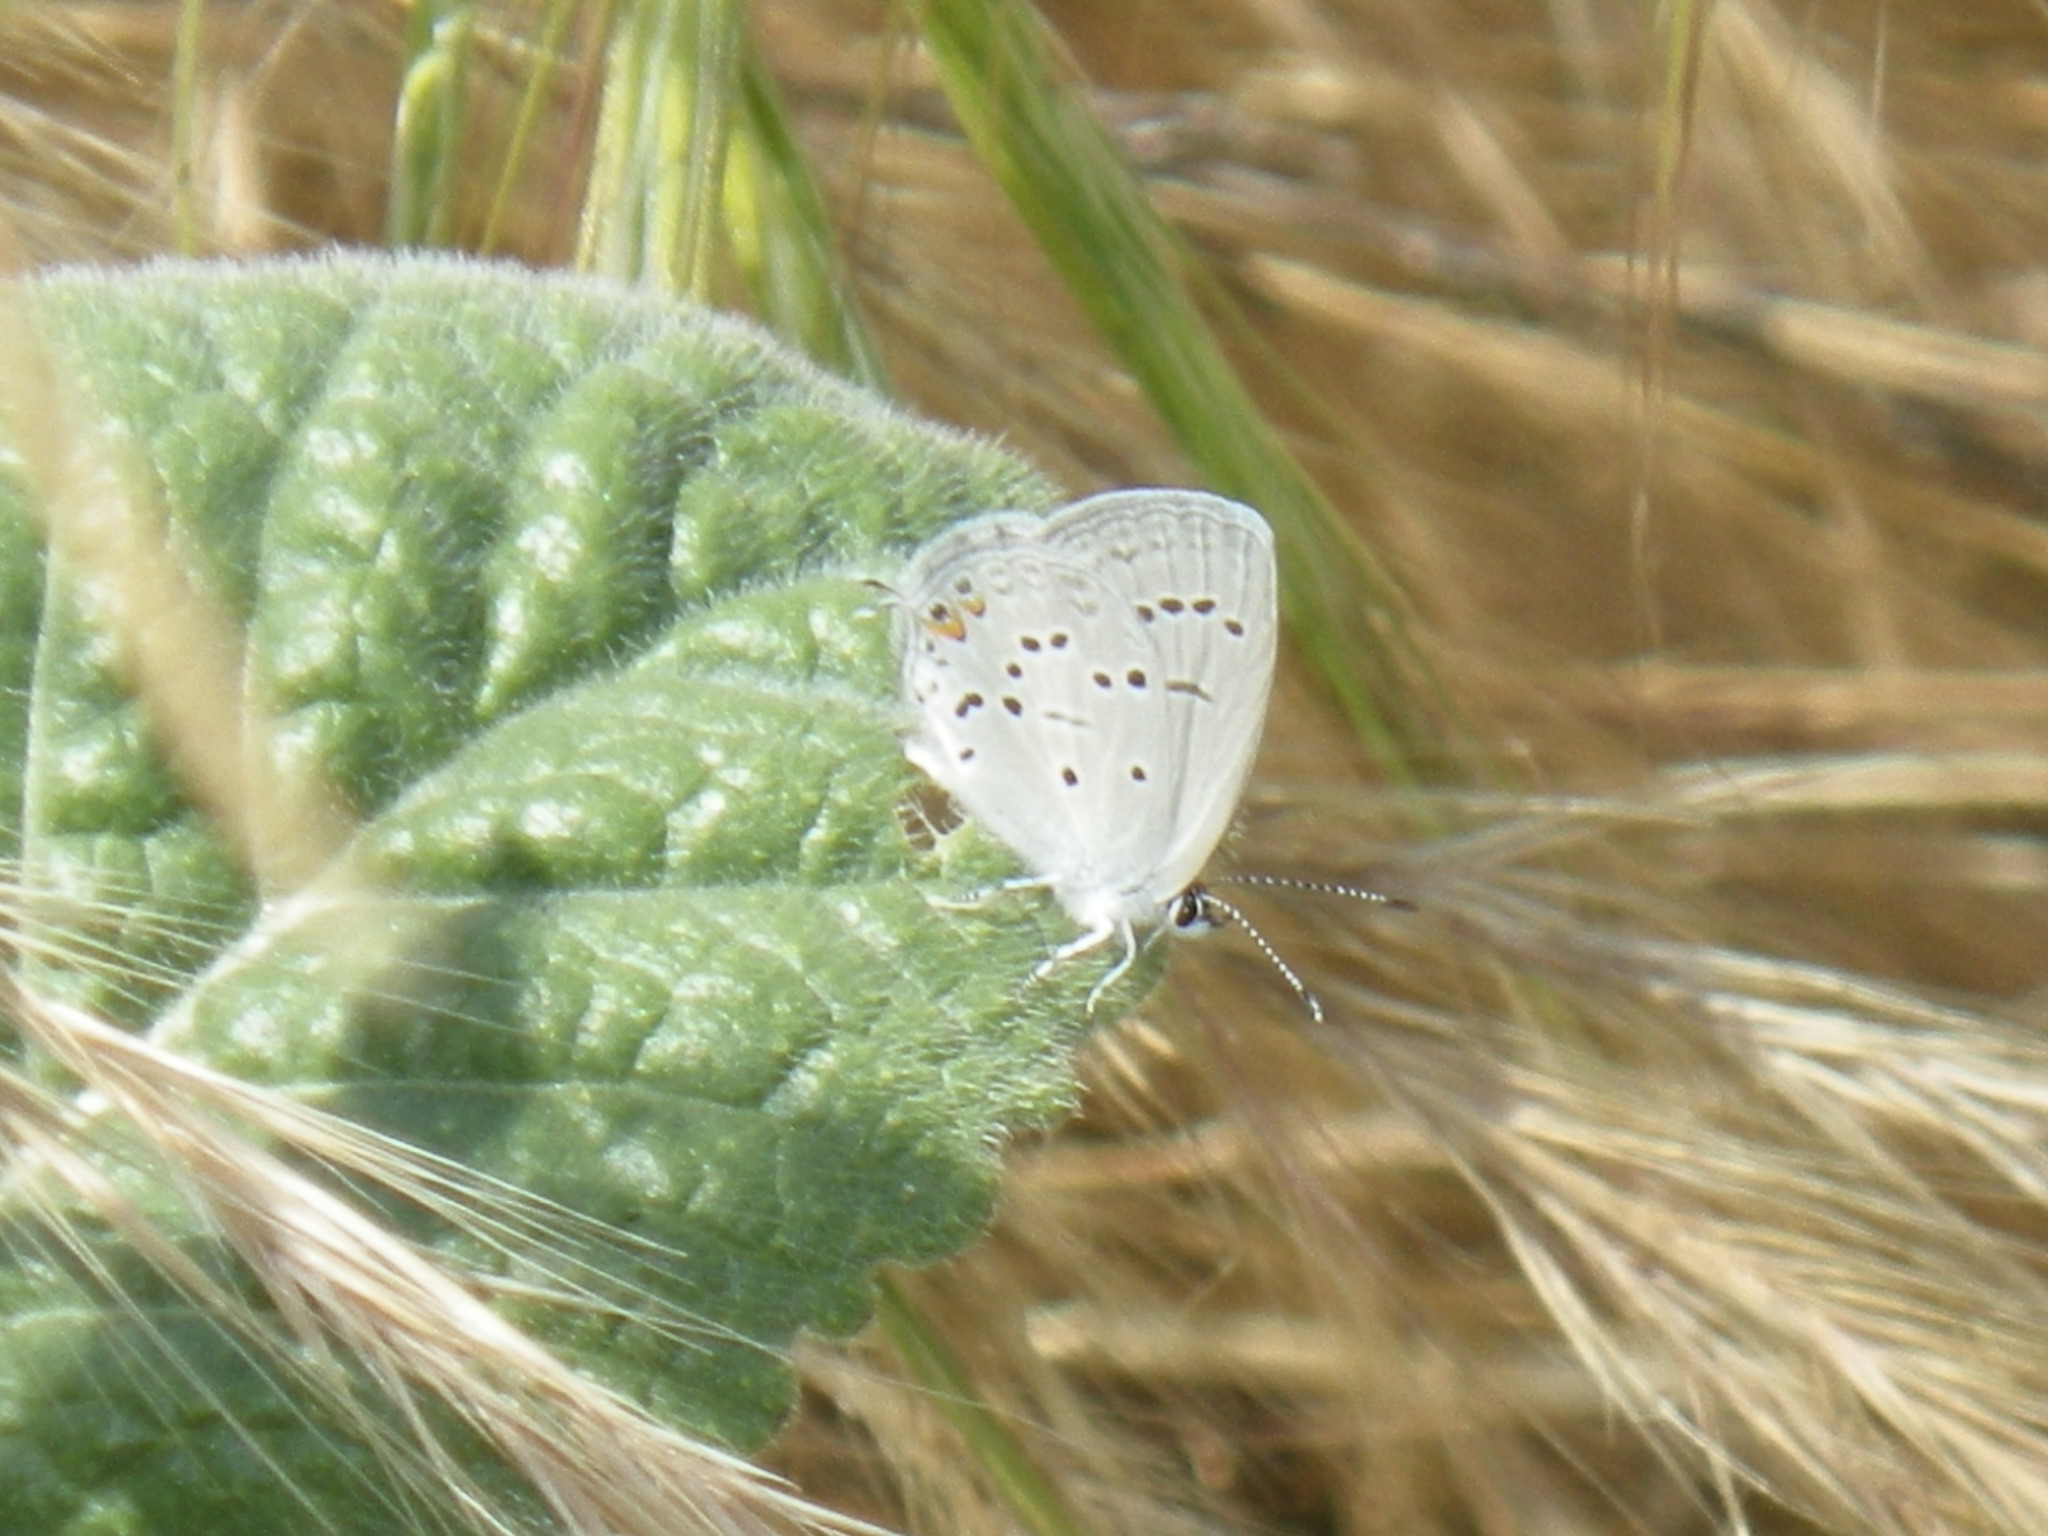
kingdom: Animalia
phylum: Arthropoda
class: Insecta
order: Lepidoptera
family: Lycaenidae
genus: Elkalyce
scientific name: Elkalyce comyntas
